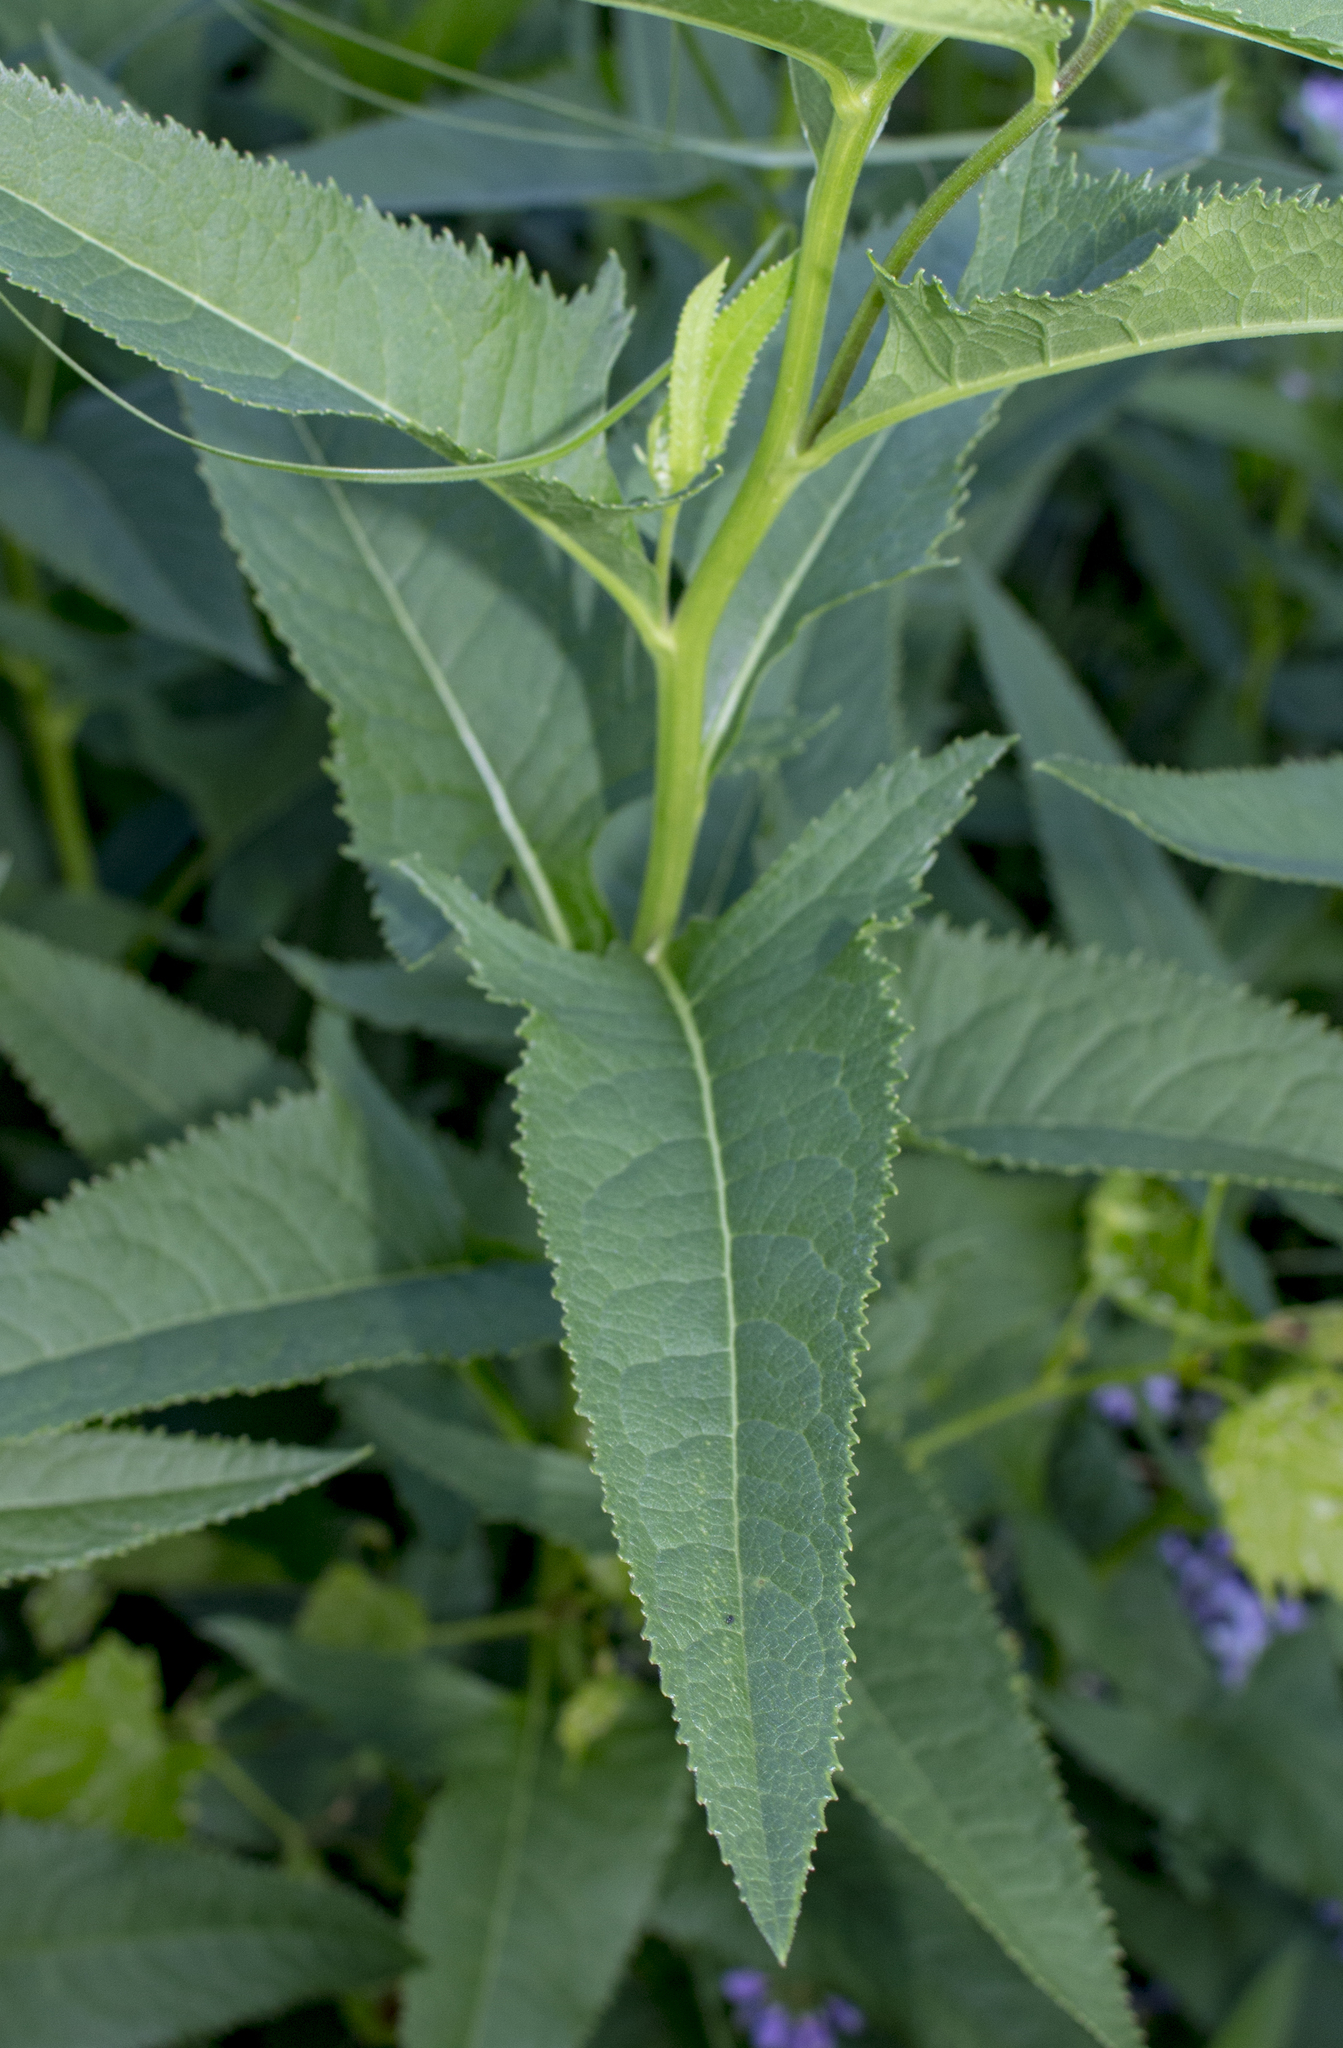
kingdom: Plantae
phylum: Tracheophyta
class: Magnoliopsida
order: Asterales
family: Asteraceae
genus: Hasteola
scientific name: Hasteola suaveolens
